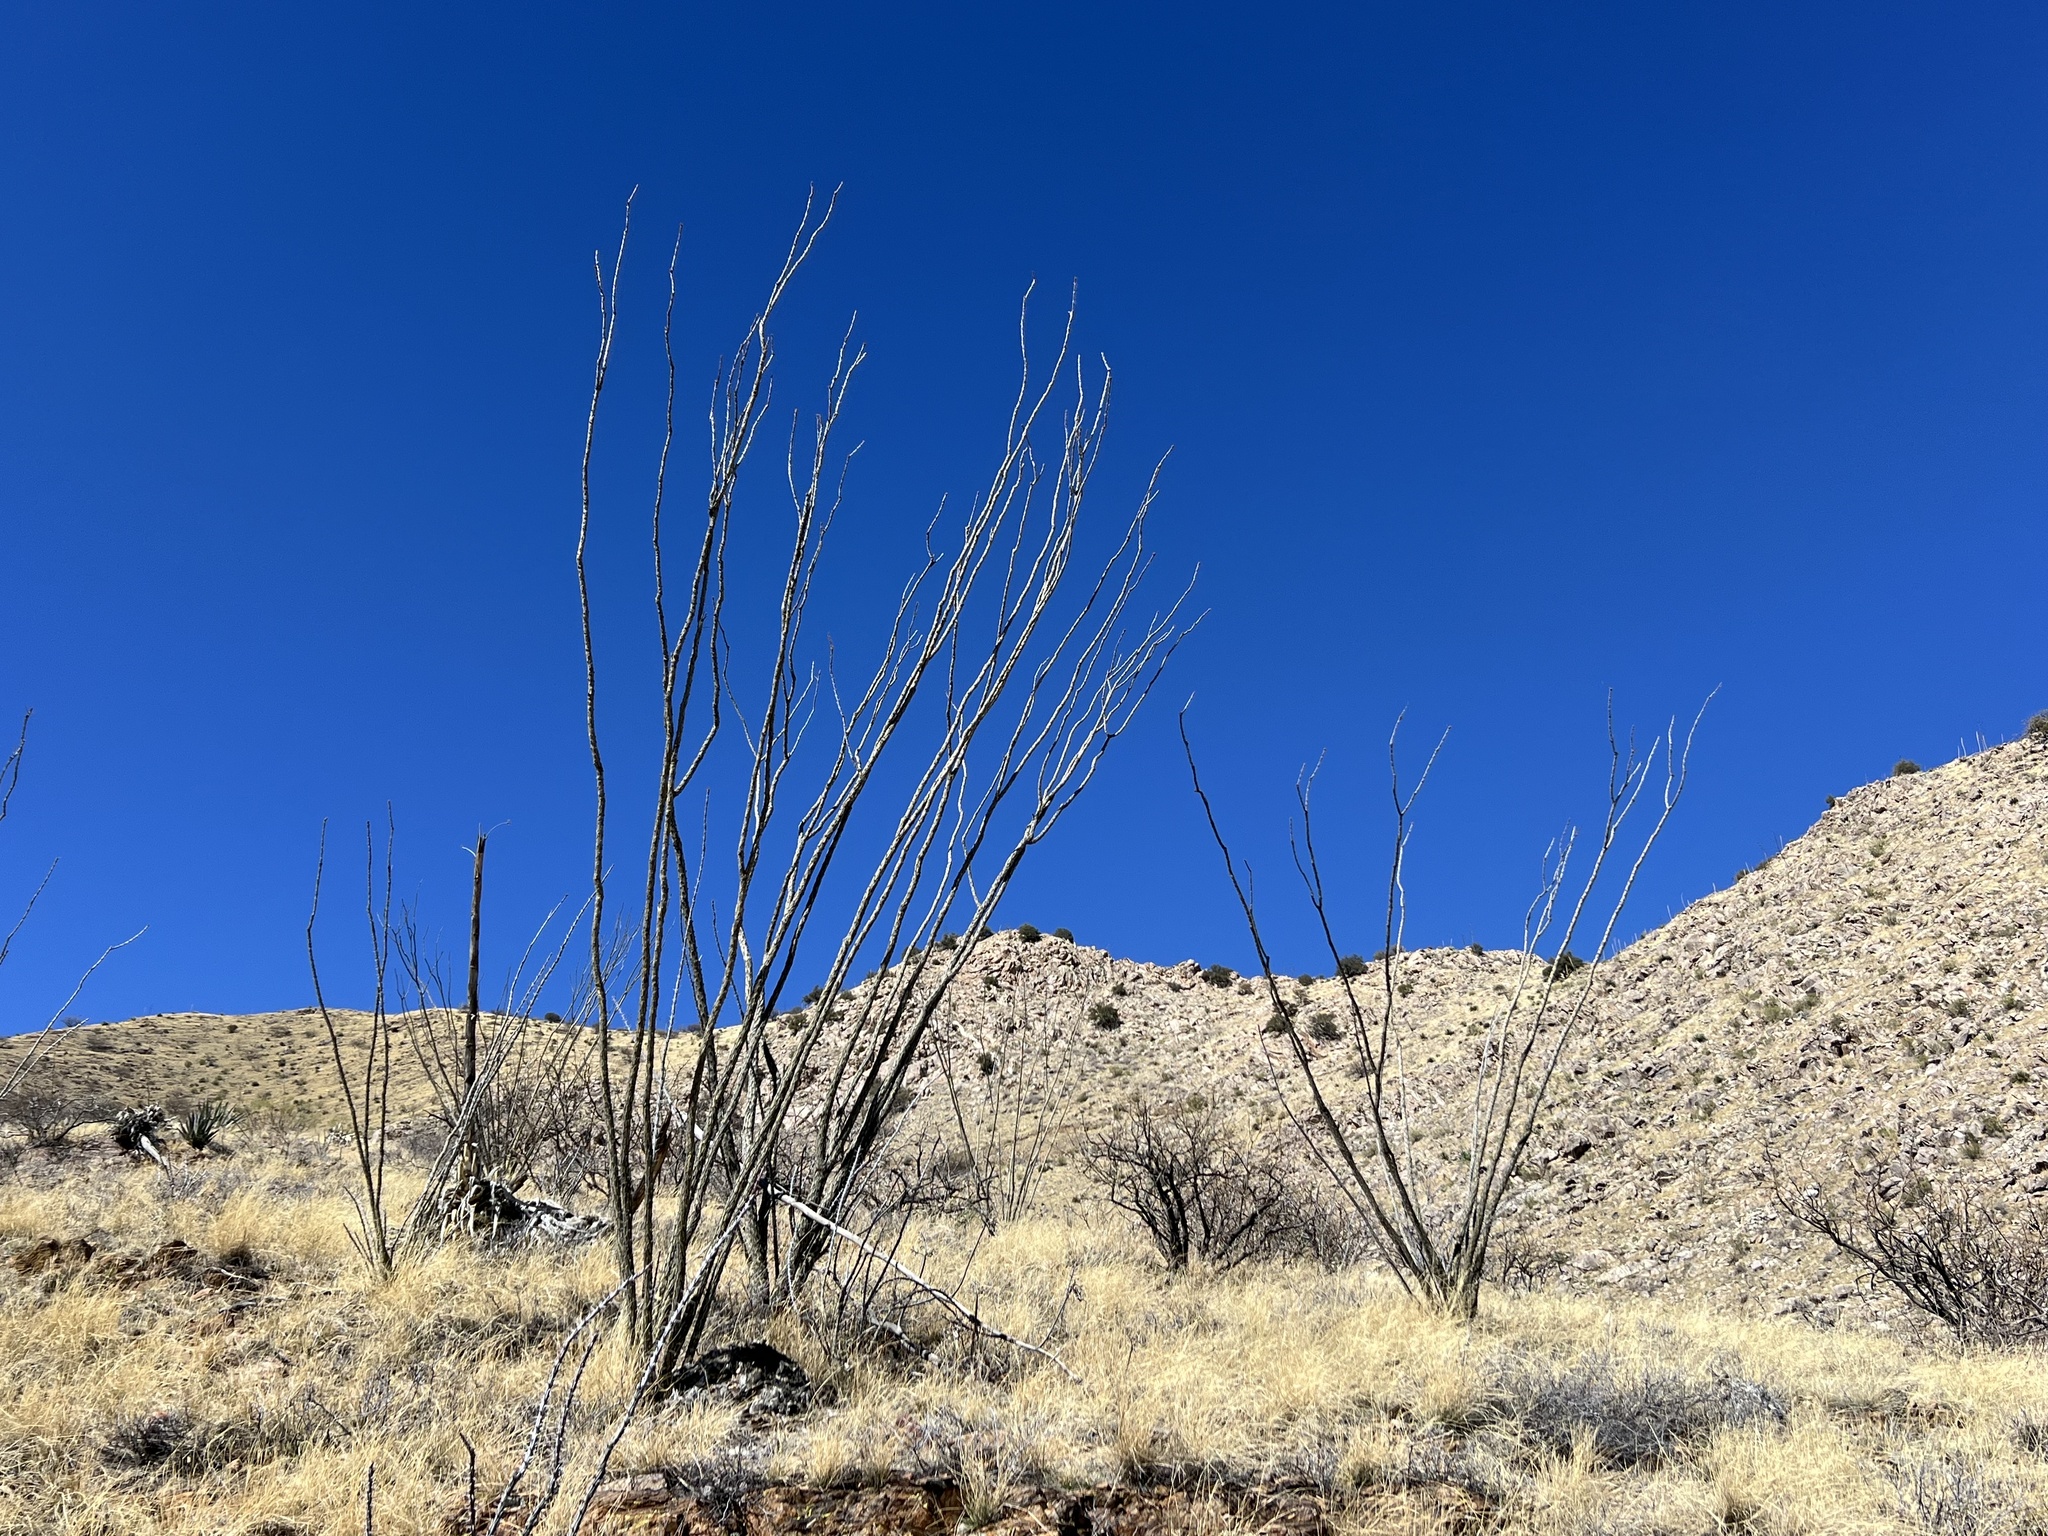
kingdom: Plantae
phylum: Tracheophyta
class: Magnoliopsida
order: Ericales
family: Fouquieriaceae
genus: Fouquieria
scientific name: Fouquieria splendens
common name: Vine-cactus
